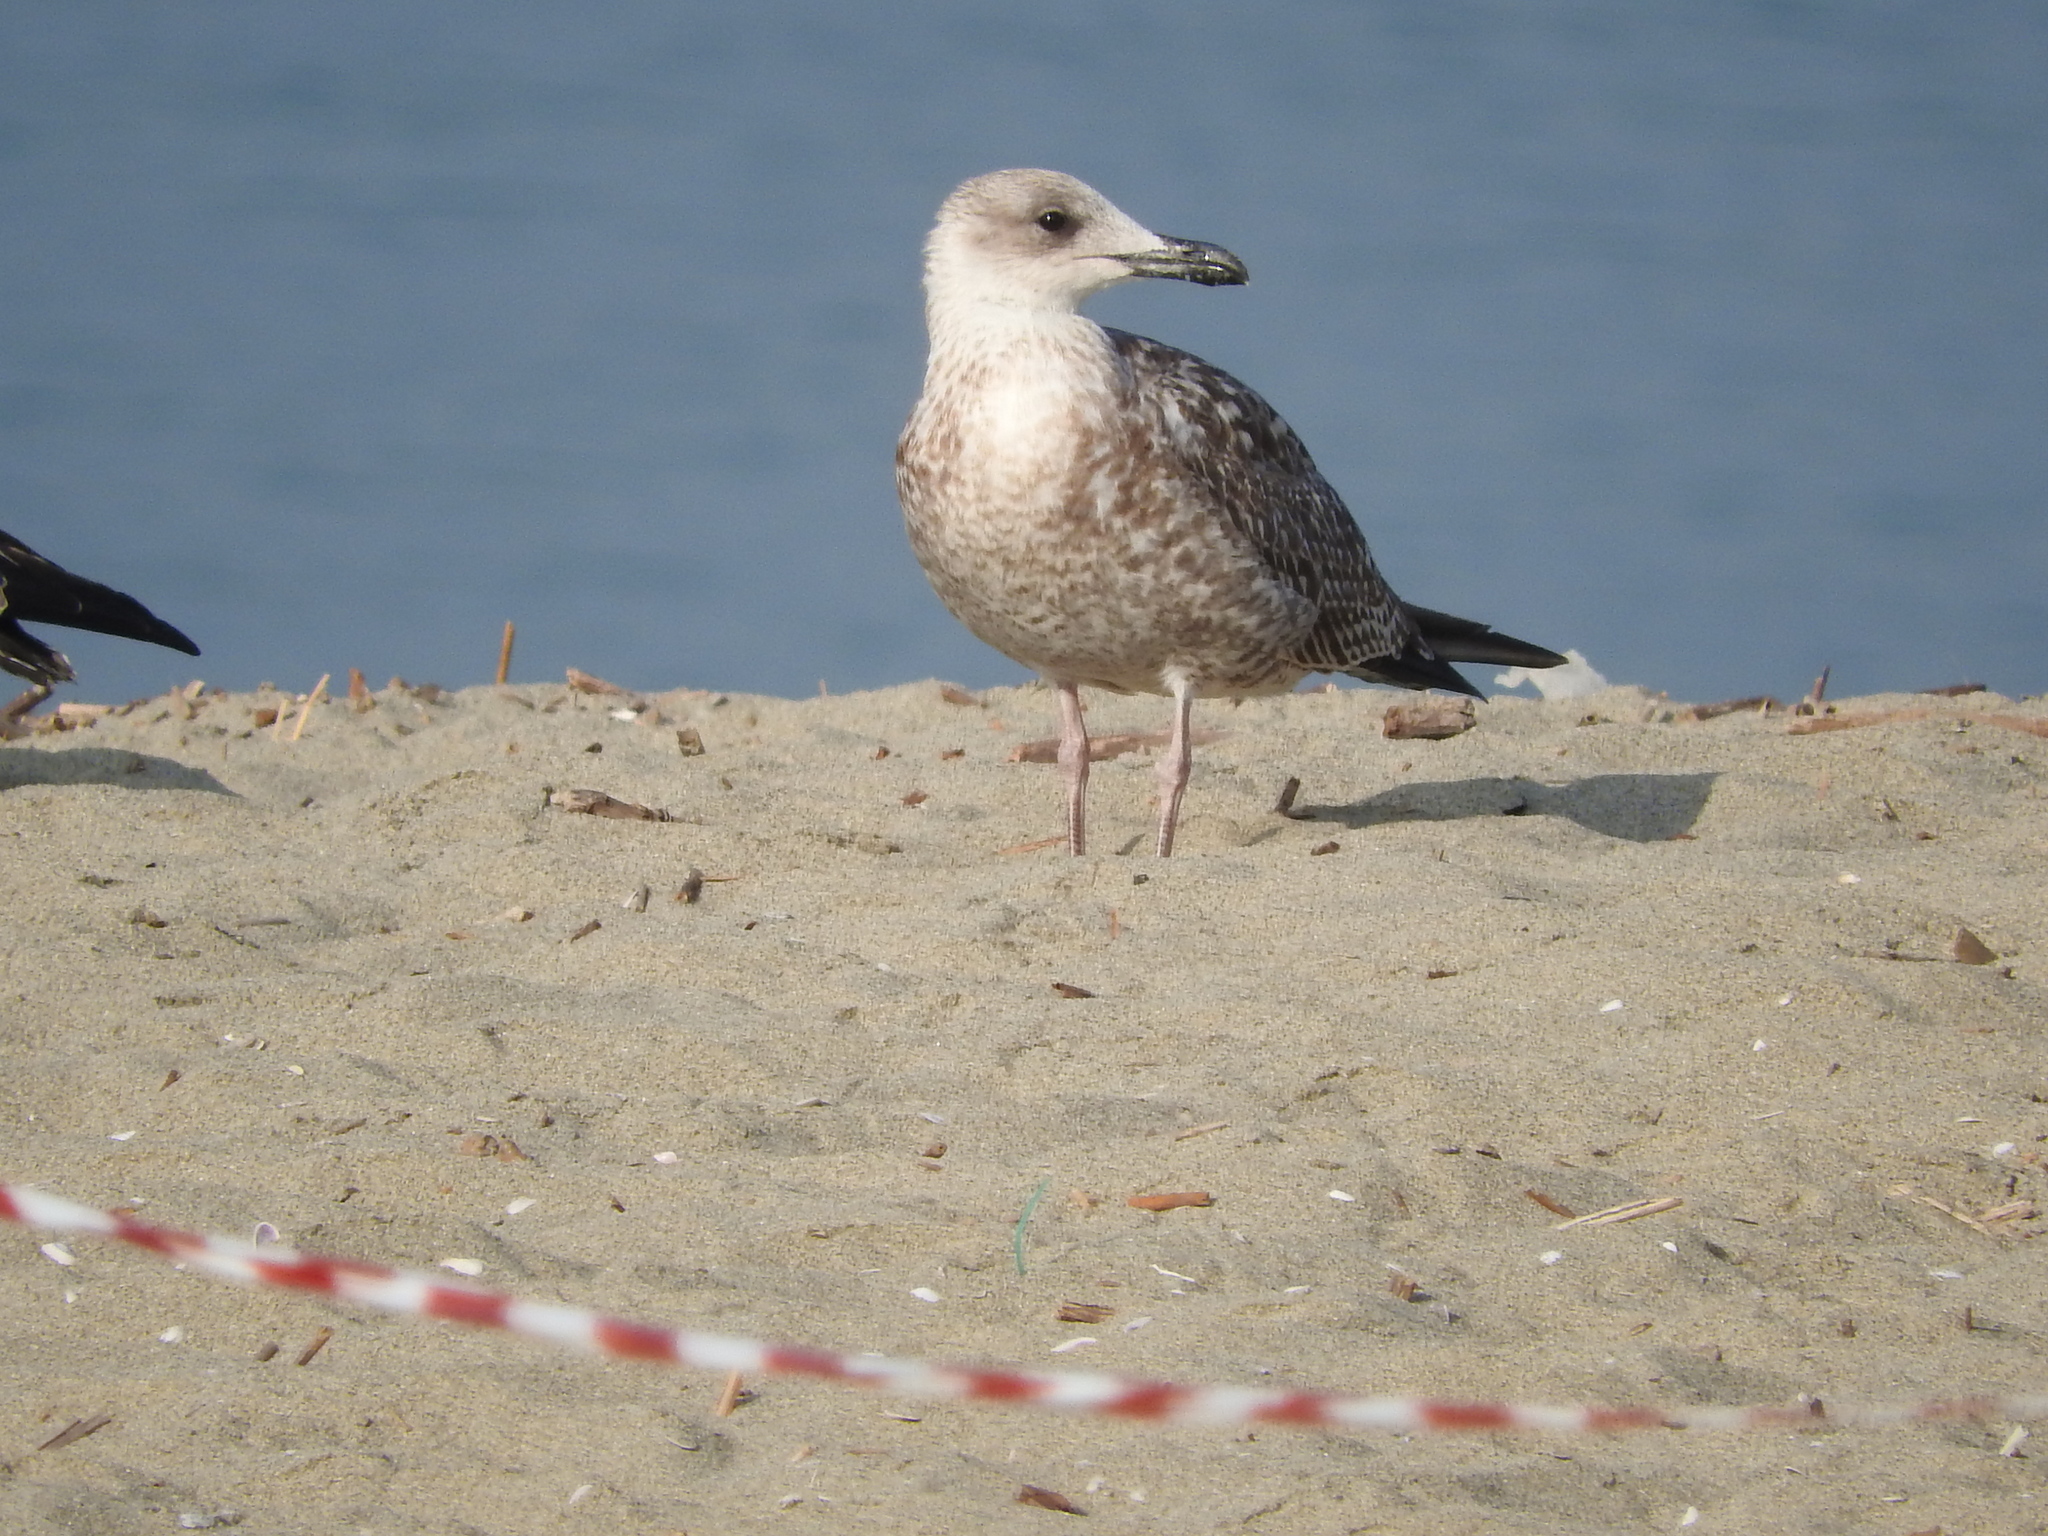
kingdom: Animalia
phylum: Chordata
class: Aves
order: Charadriiformes
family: Laridae
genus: Larus
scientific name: Larus michahellis
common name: Yellow-legged gull
